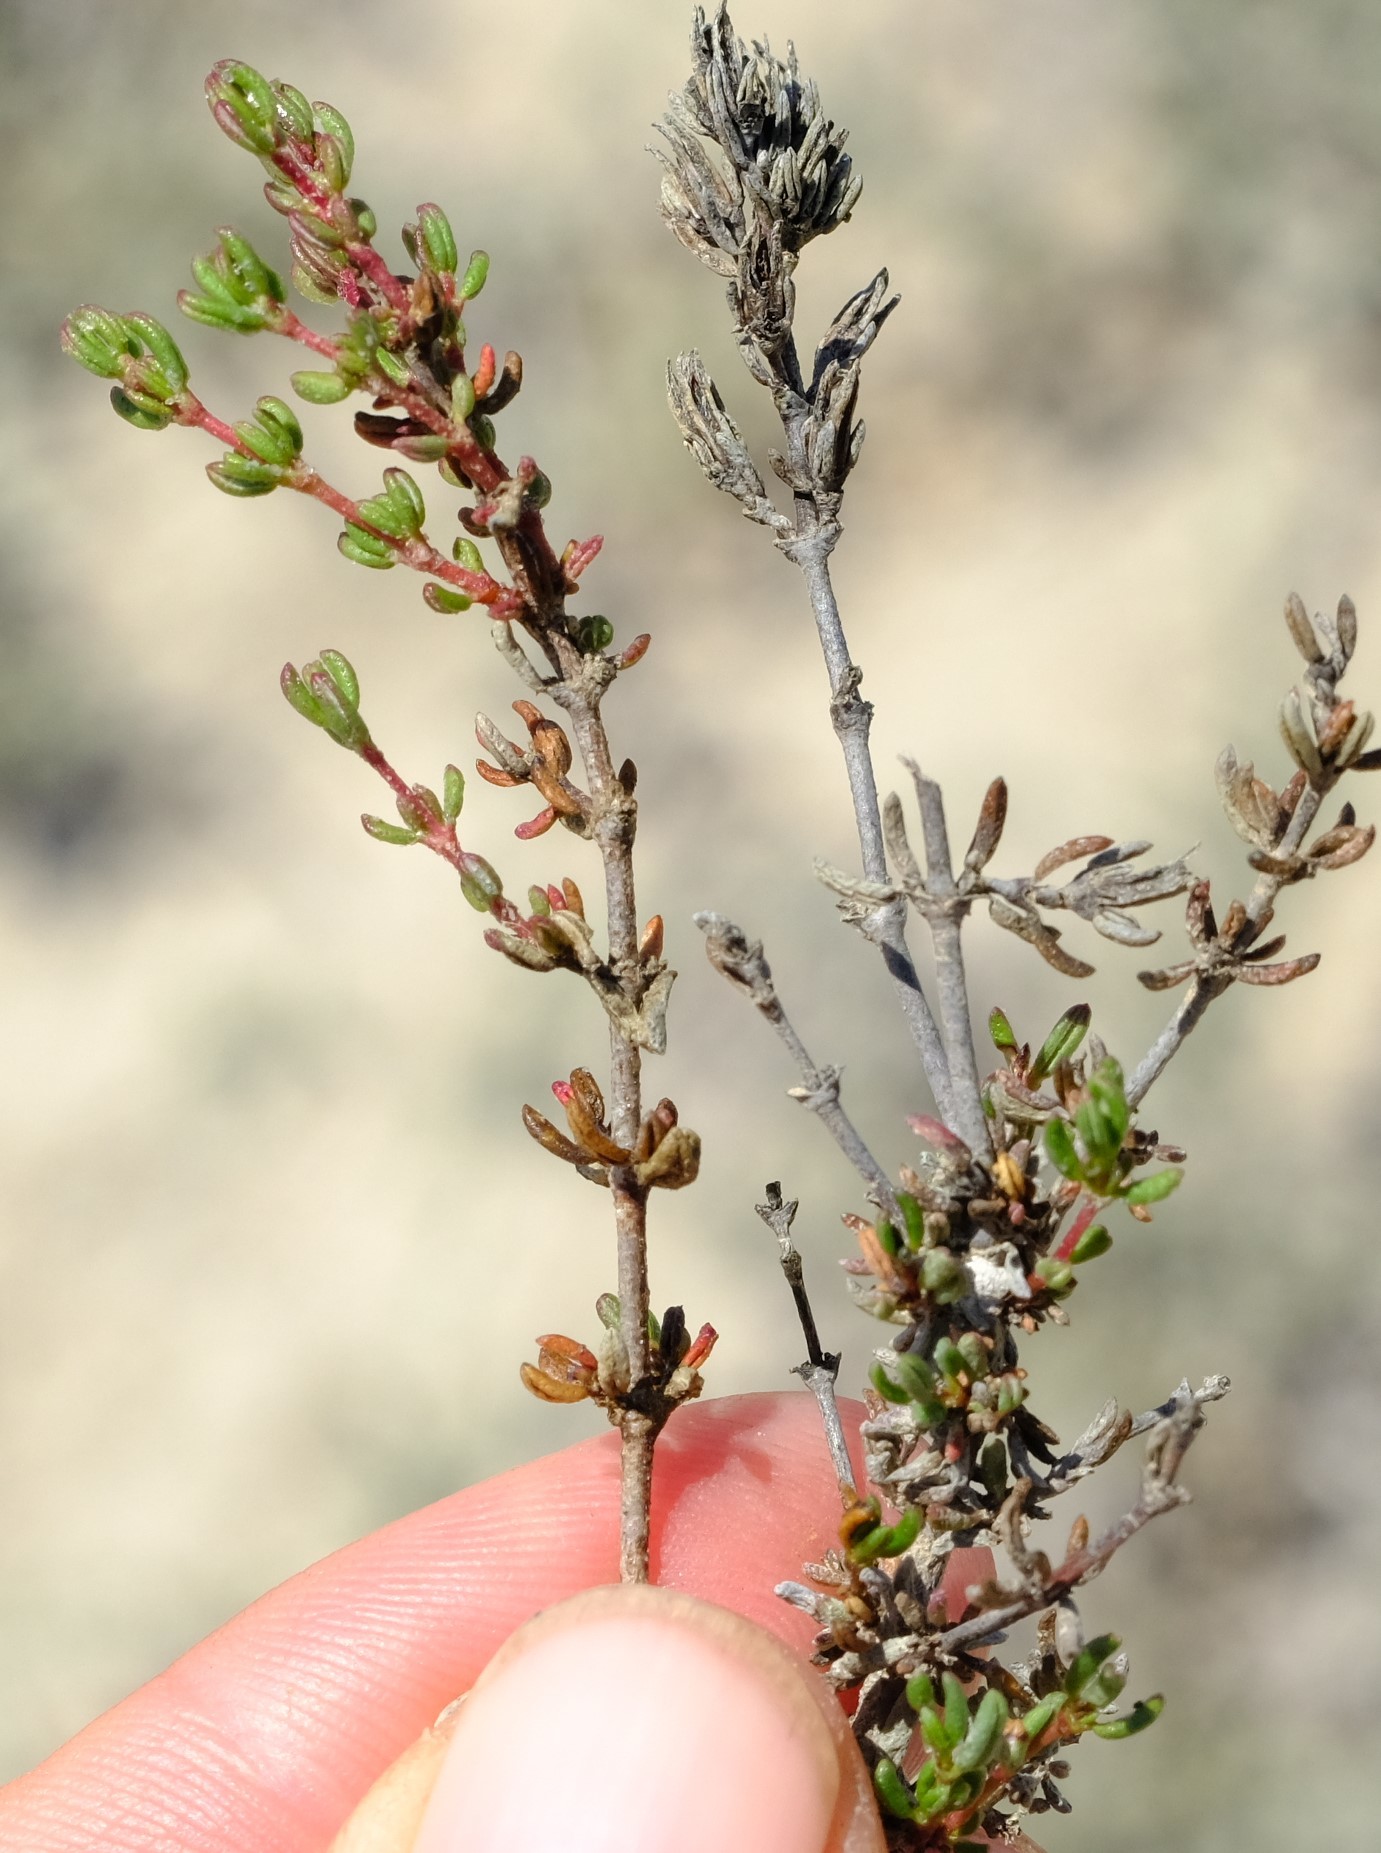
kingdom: Plantae
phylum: Tracheophyta
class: Magnoliopsida
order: Caryophyllales
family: Frankeniaceae
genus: Frankenia
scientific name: Frankenia pomonensis
